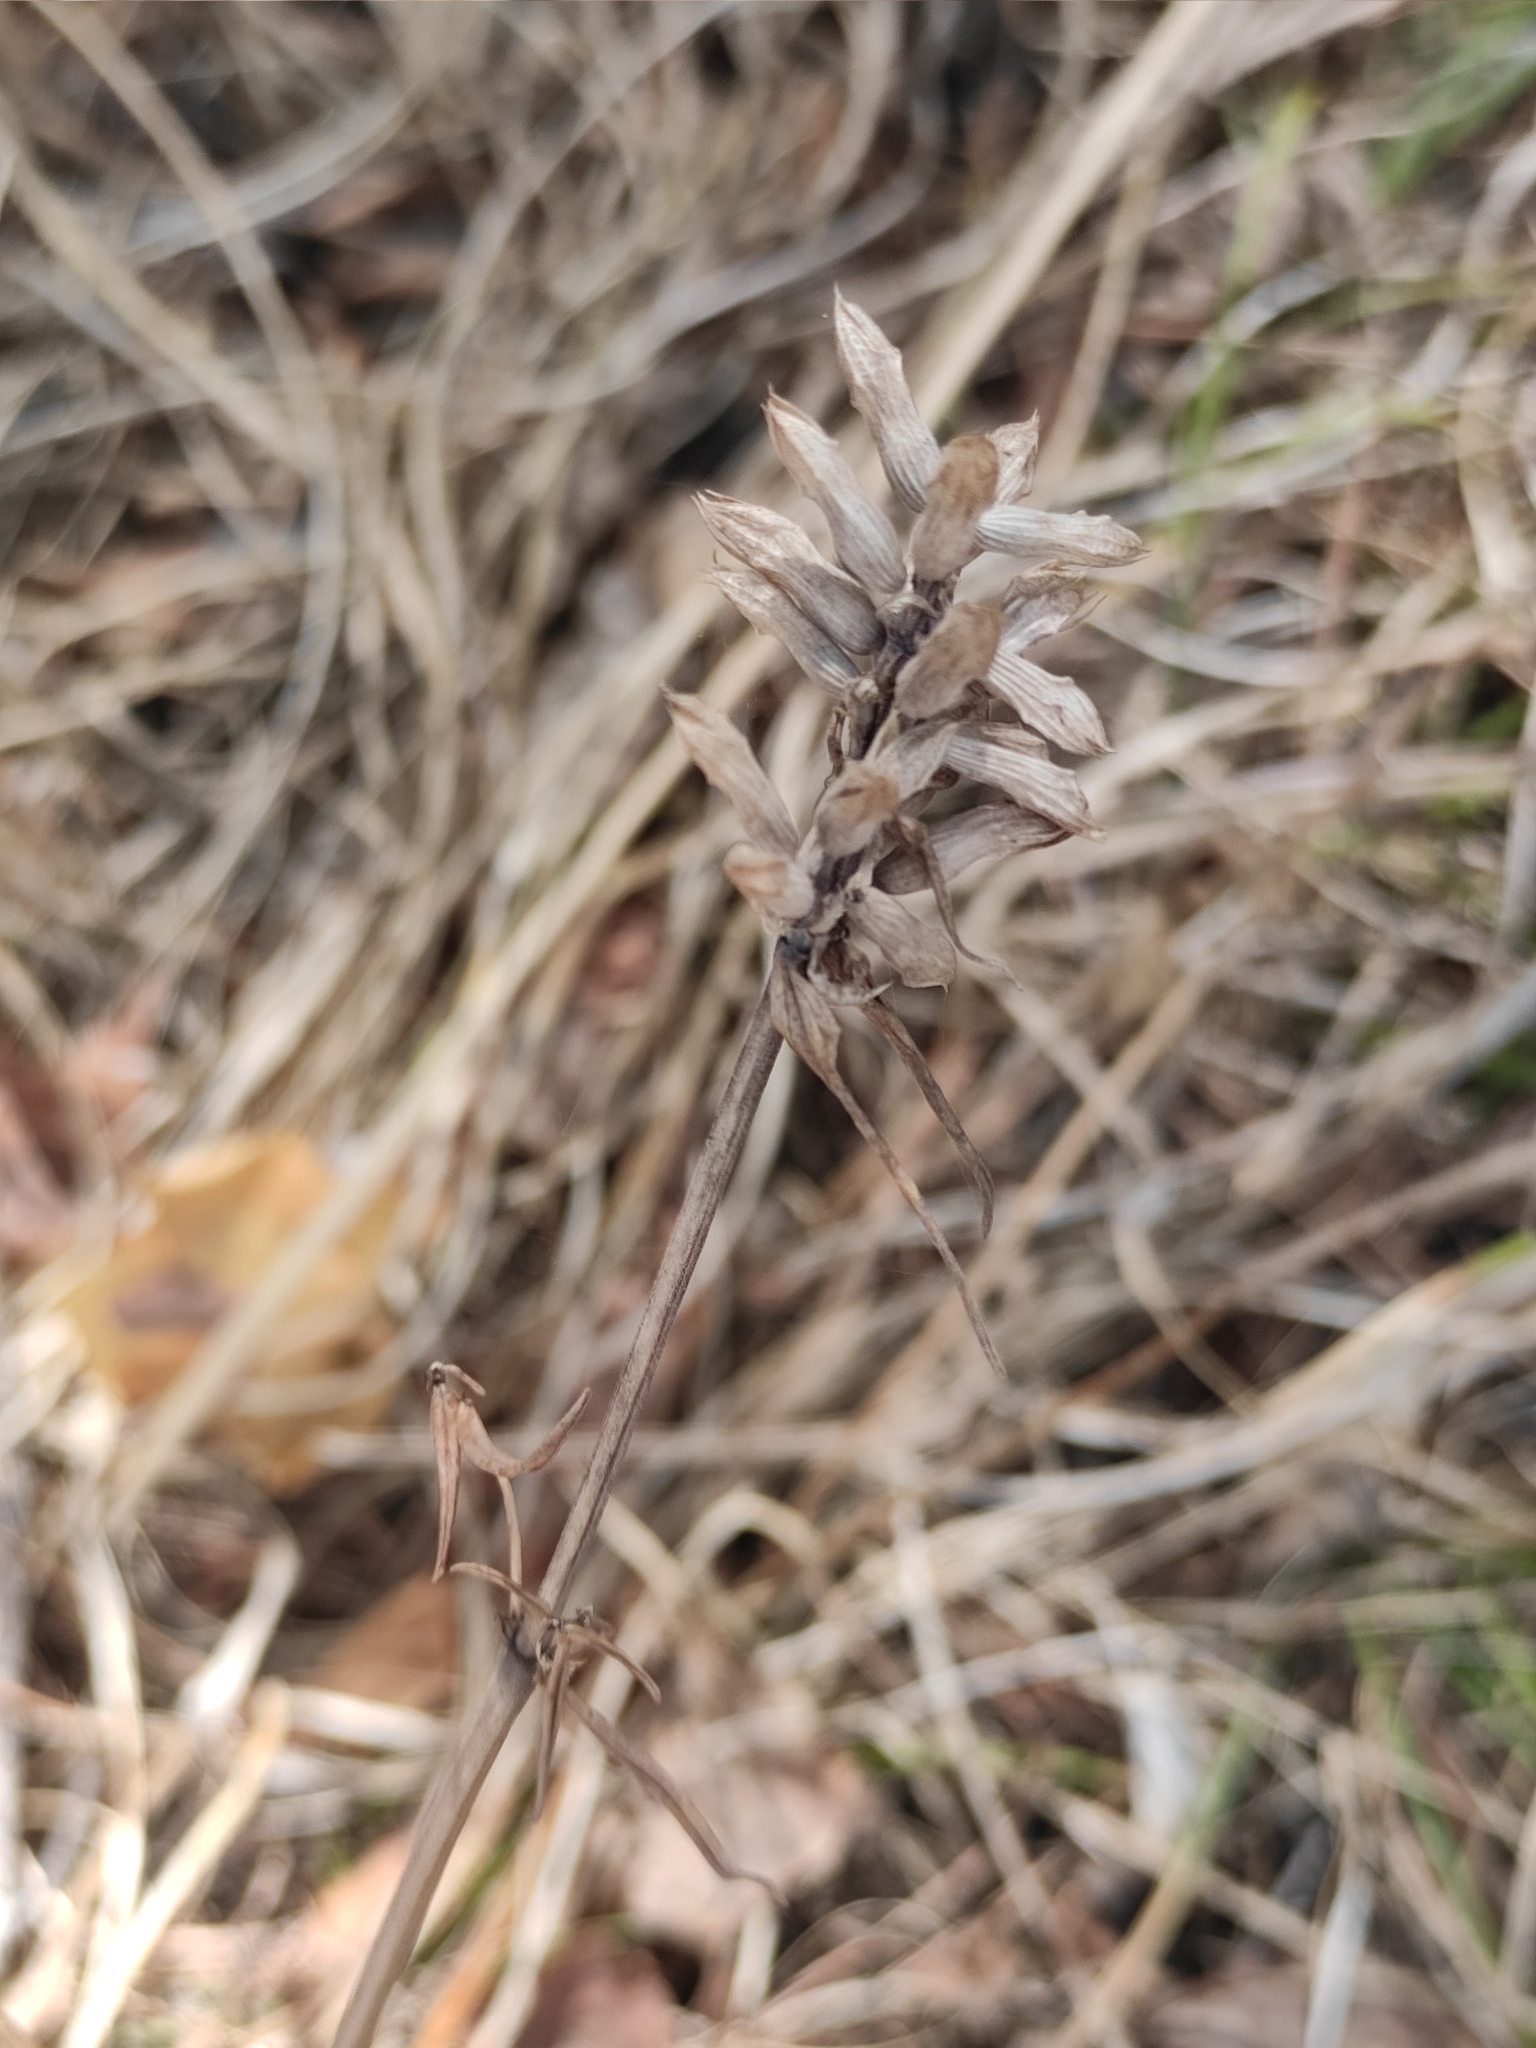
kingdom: Plantae
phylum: Tracheophyta
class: Magnoliopsida
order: Lamiales
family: Lamiaceae
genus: Dracocephalum
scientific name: Dracocephalum ruyschiana
